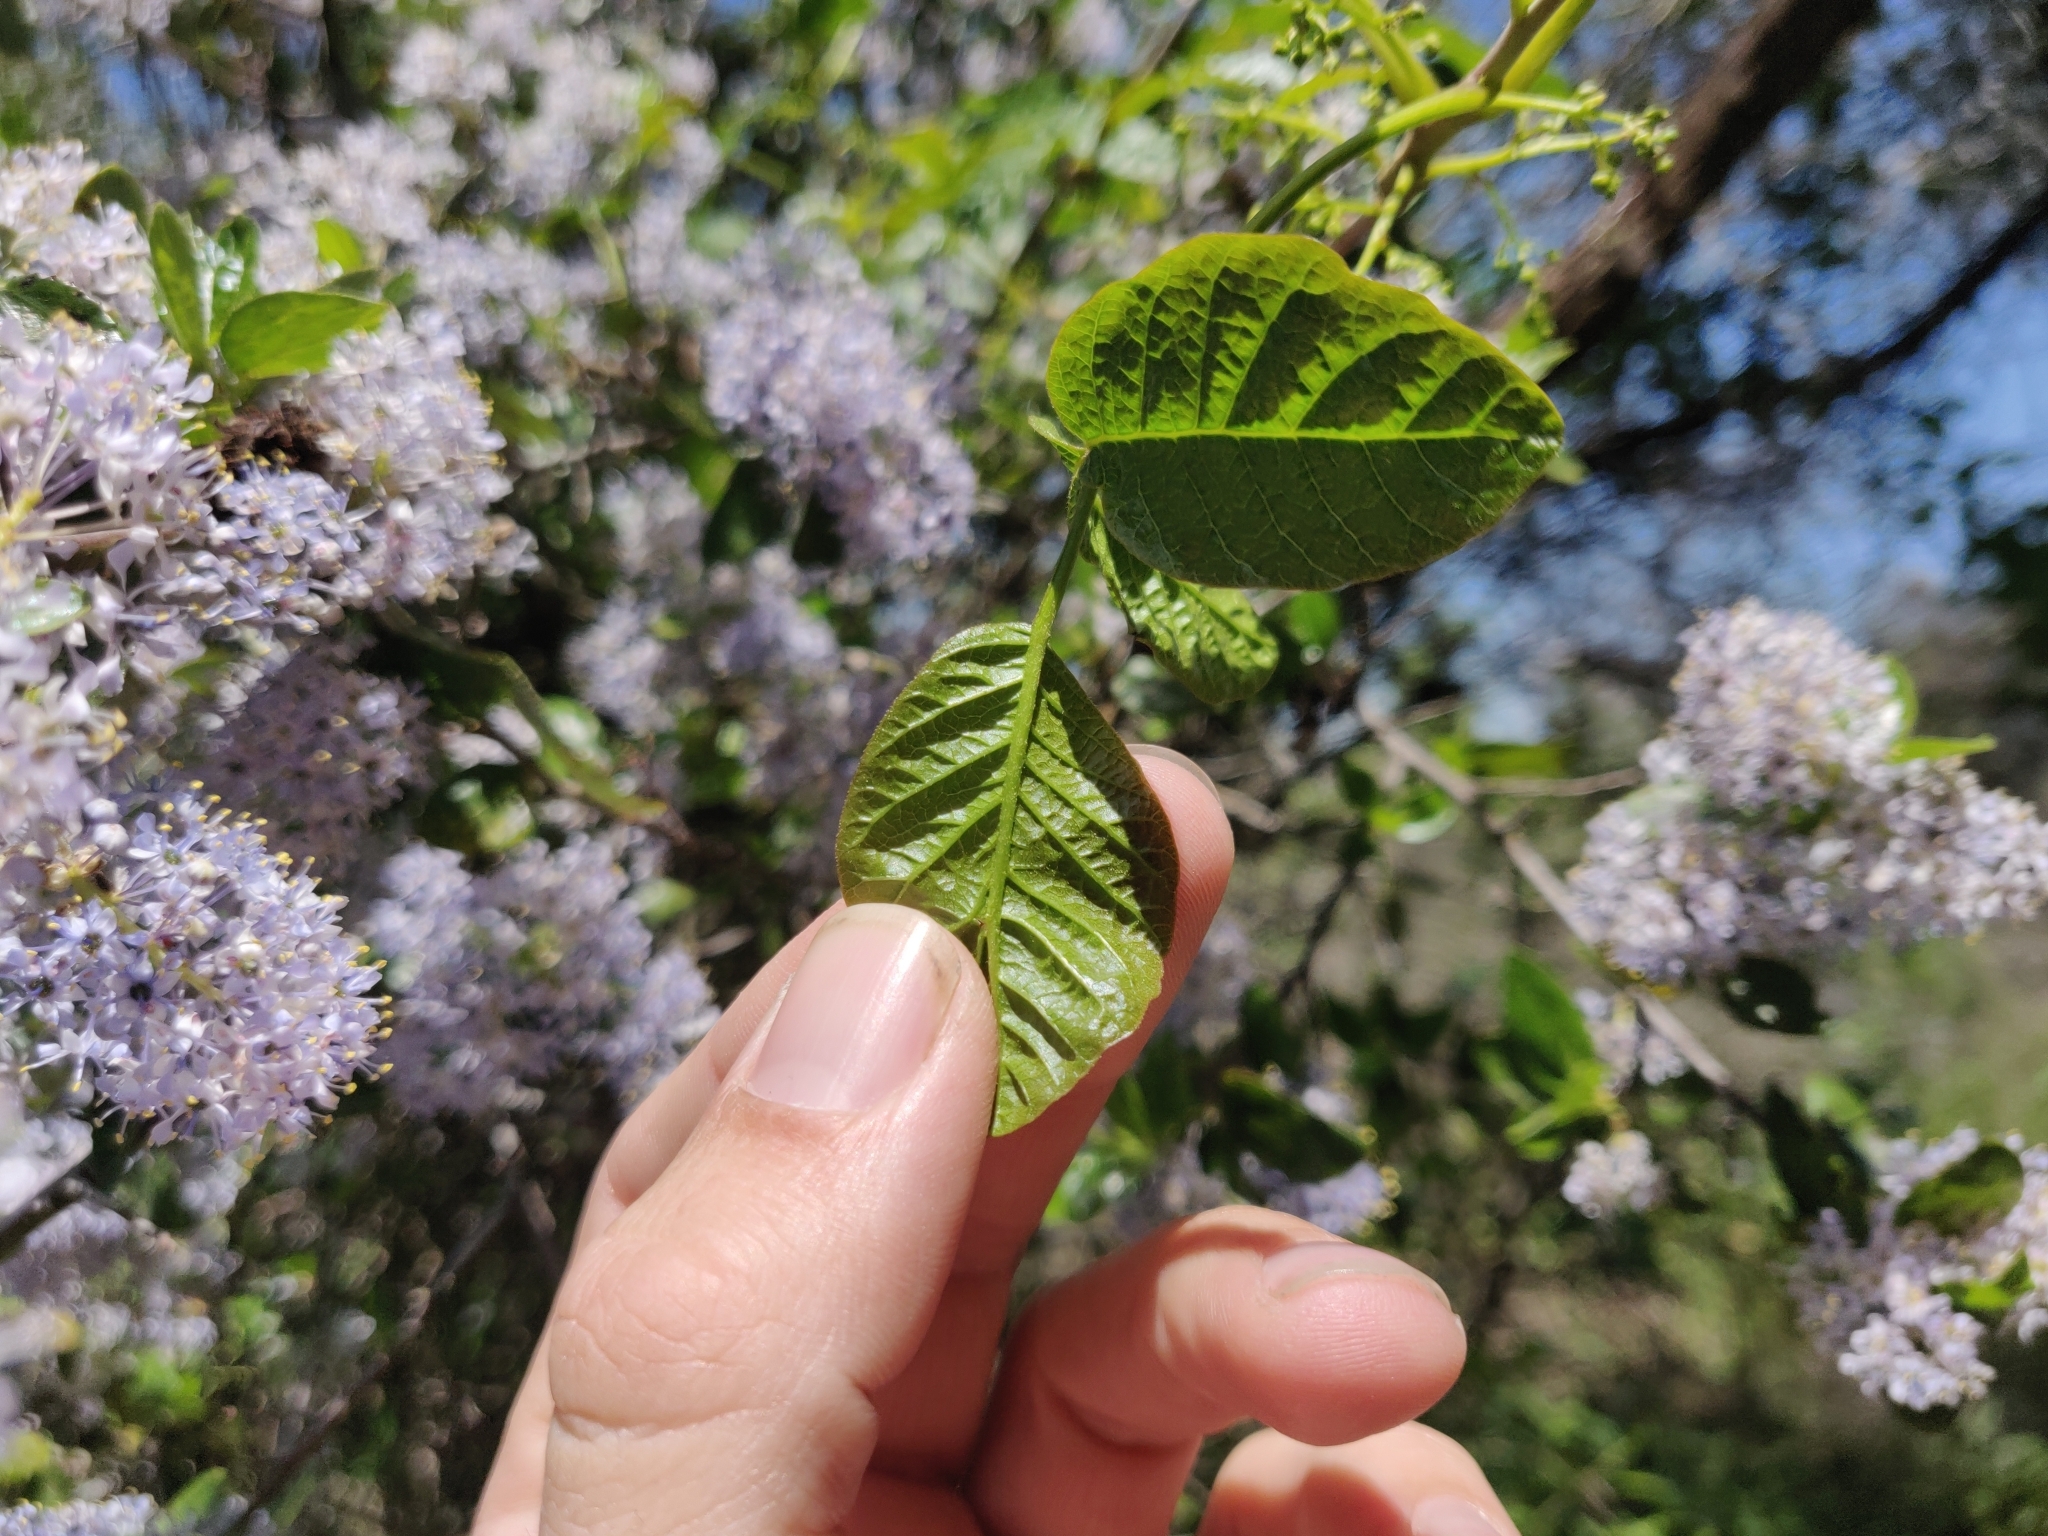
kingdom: Plantae
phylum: Tracheophyta
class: Magnoliopsida
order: Sapindales
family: Anacardiaceae
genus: Toxicodendron
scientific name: Toxicodendron diversilobum
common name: Pacific poison-oak
